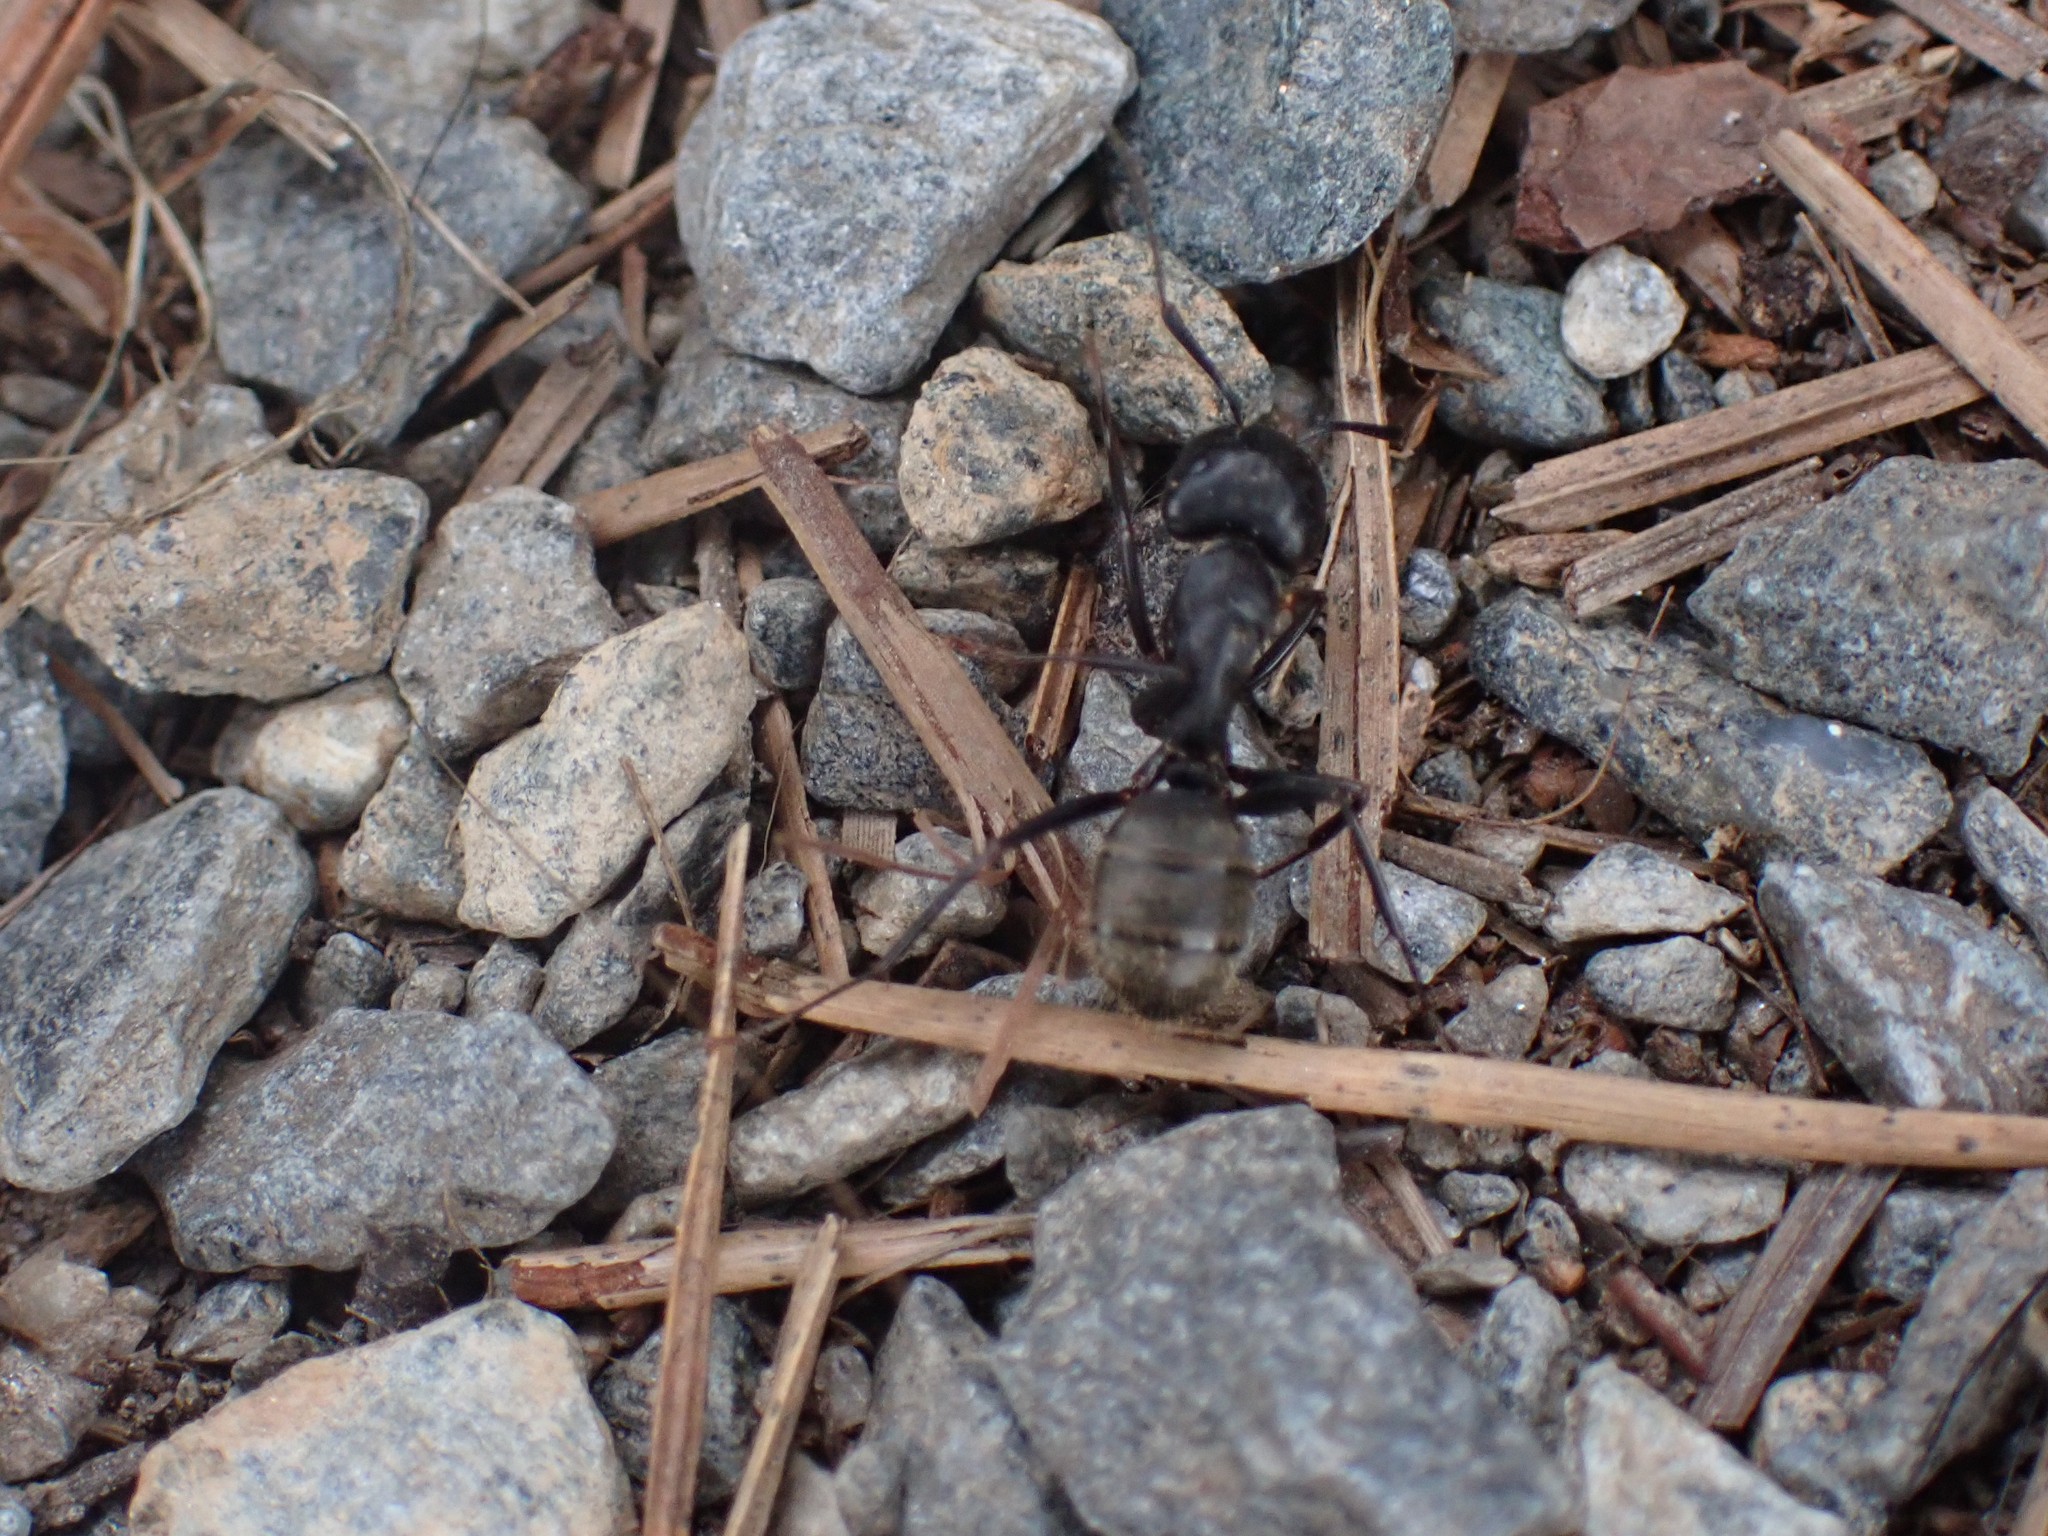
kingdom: Animalia
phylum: Arthropoda
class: Insecta
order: Hymenoptera
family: Formicidae
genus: Camponotus
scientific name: Camponotus pennsylvanicus
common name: Black carpenter ant
